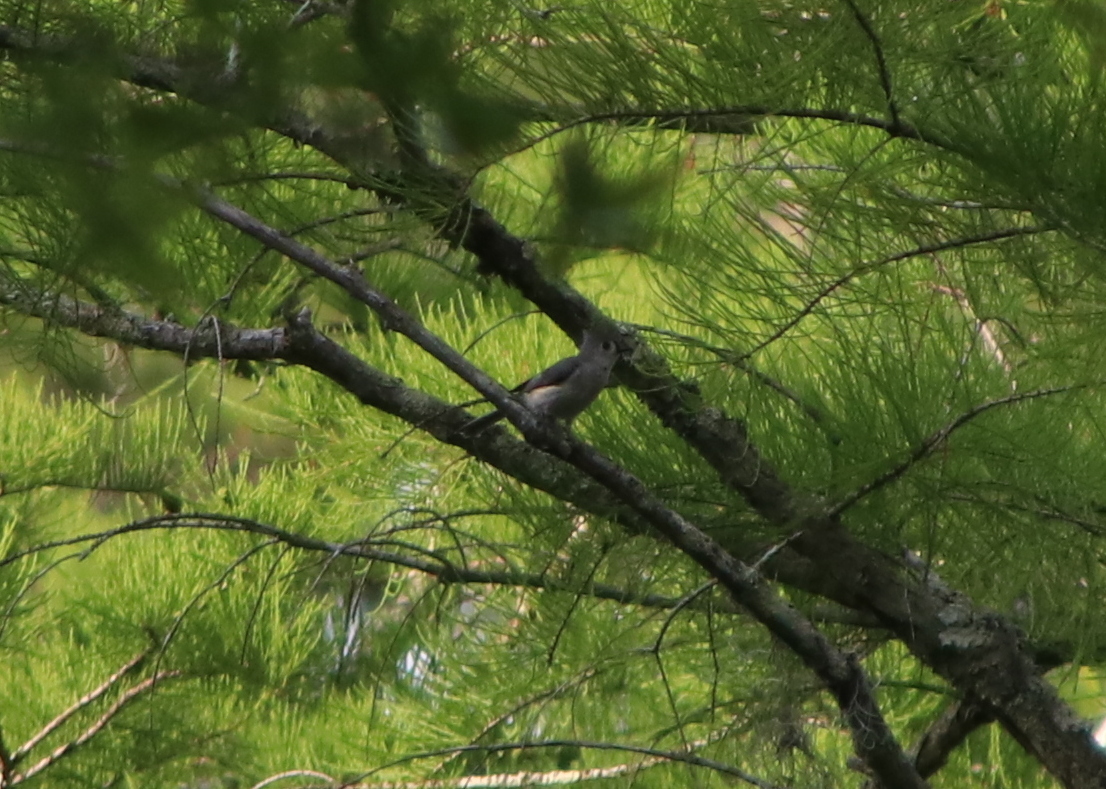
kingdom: Animalia
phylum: Chordata
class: Aves
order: Passeriformes
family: Paridae
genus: Baeolophus
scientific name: Baeolophus bicolor
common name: Tufted titmouse
